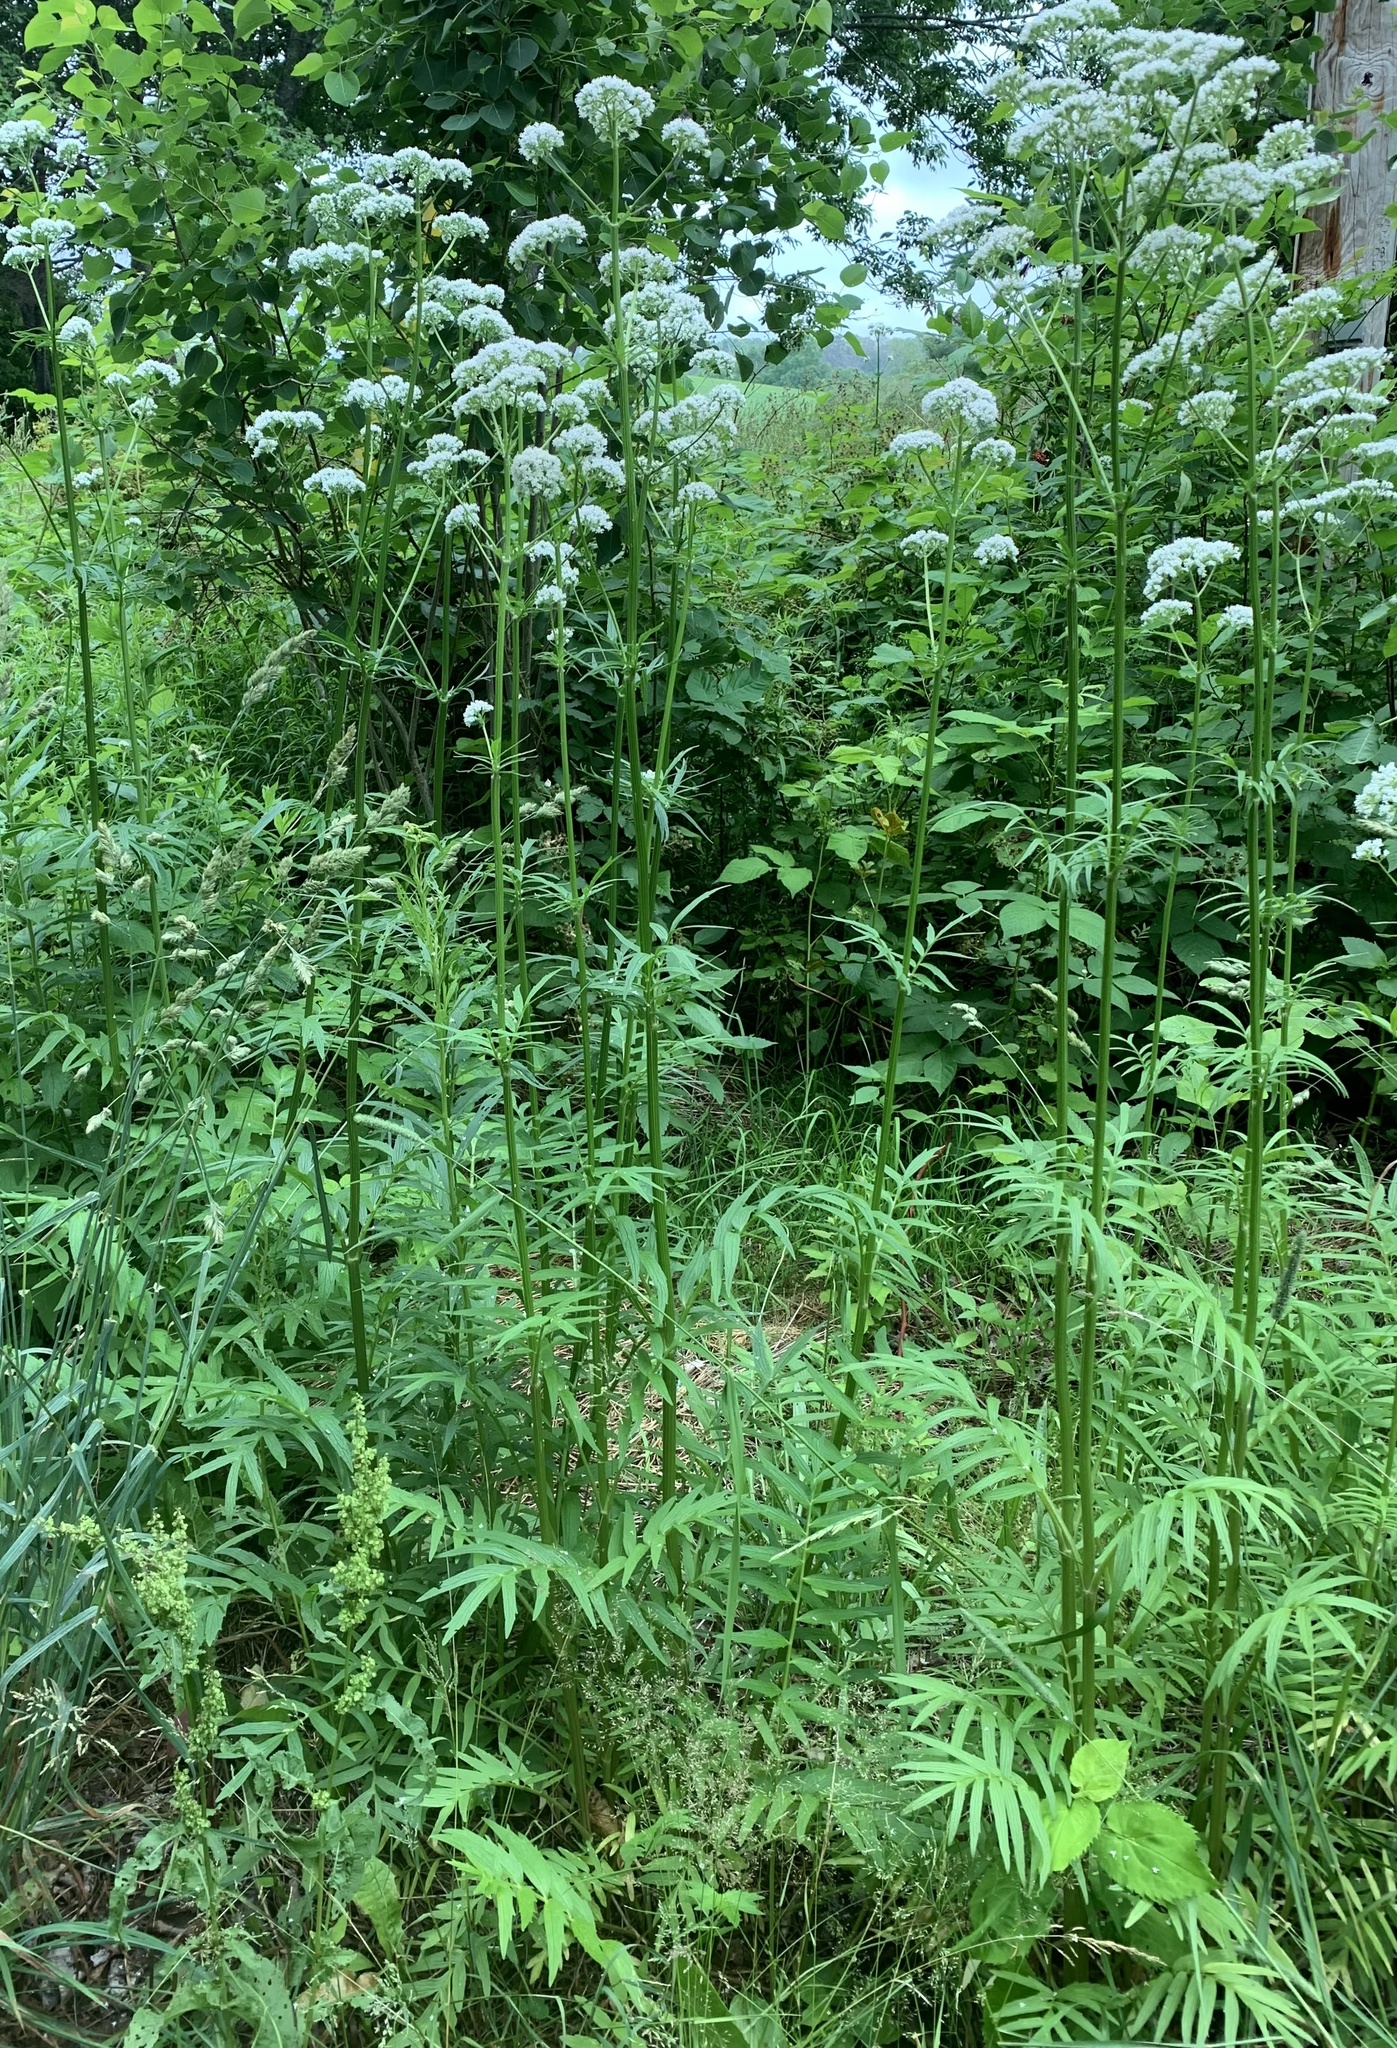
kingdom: Plantae
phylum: Tracheophyta
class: Magnoliopsida
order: Dipsacales
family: Caprifoliaceae
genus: Valeriana
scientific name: Valeriana officinalis
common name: Common valerian
